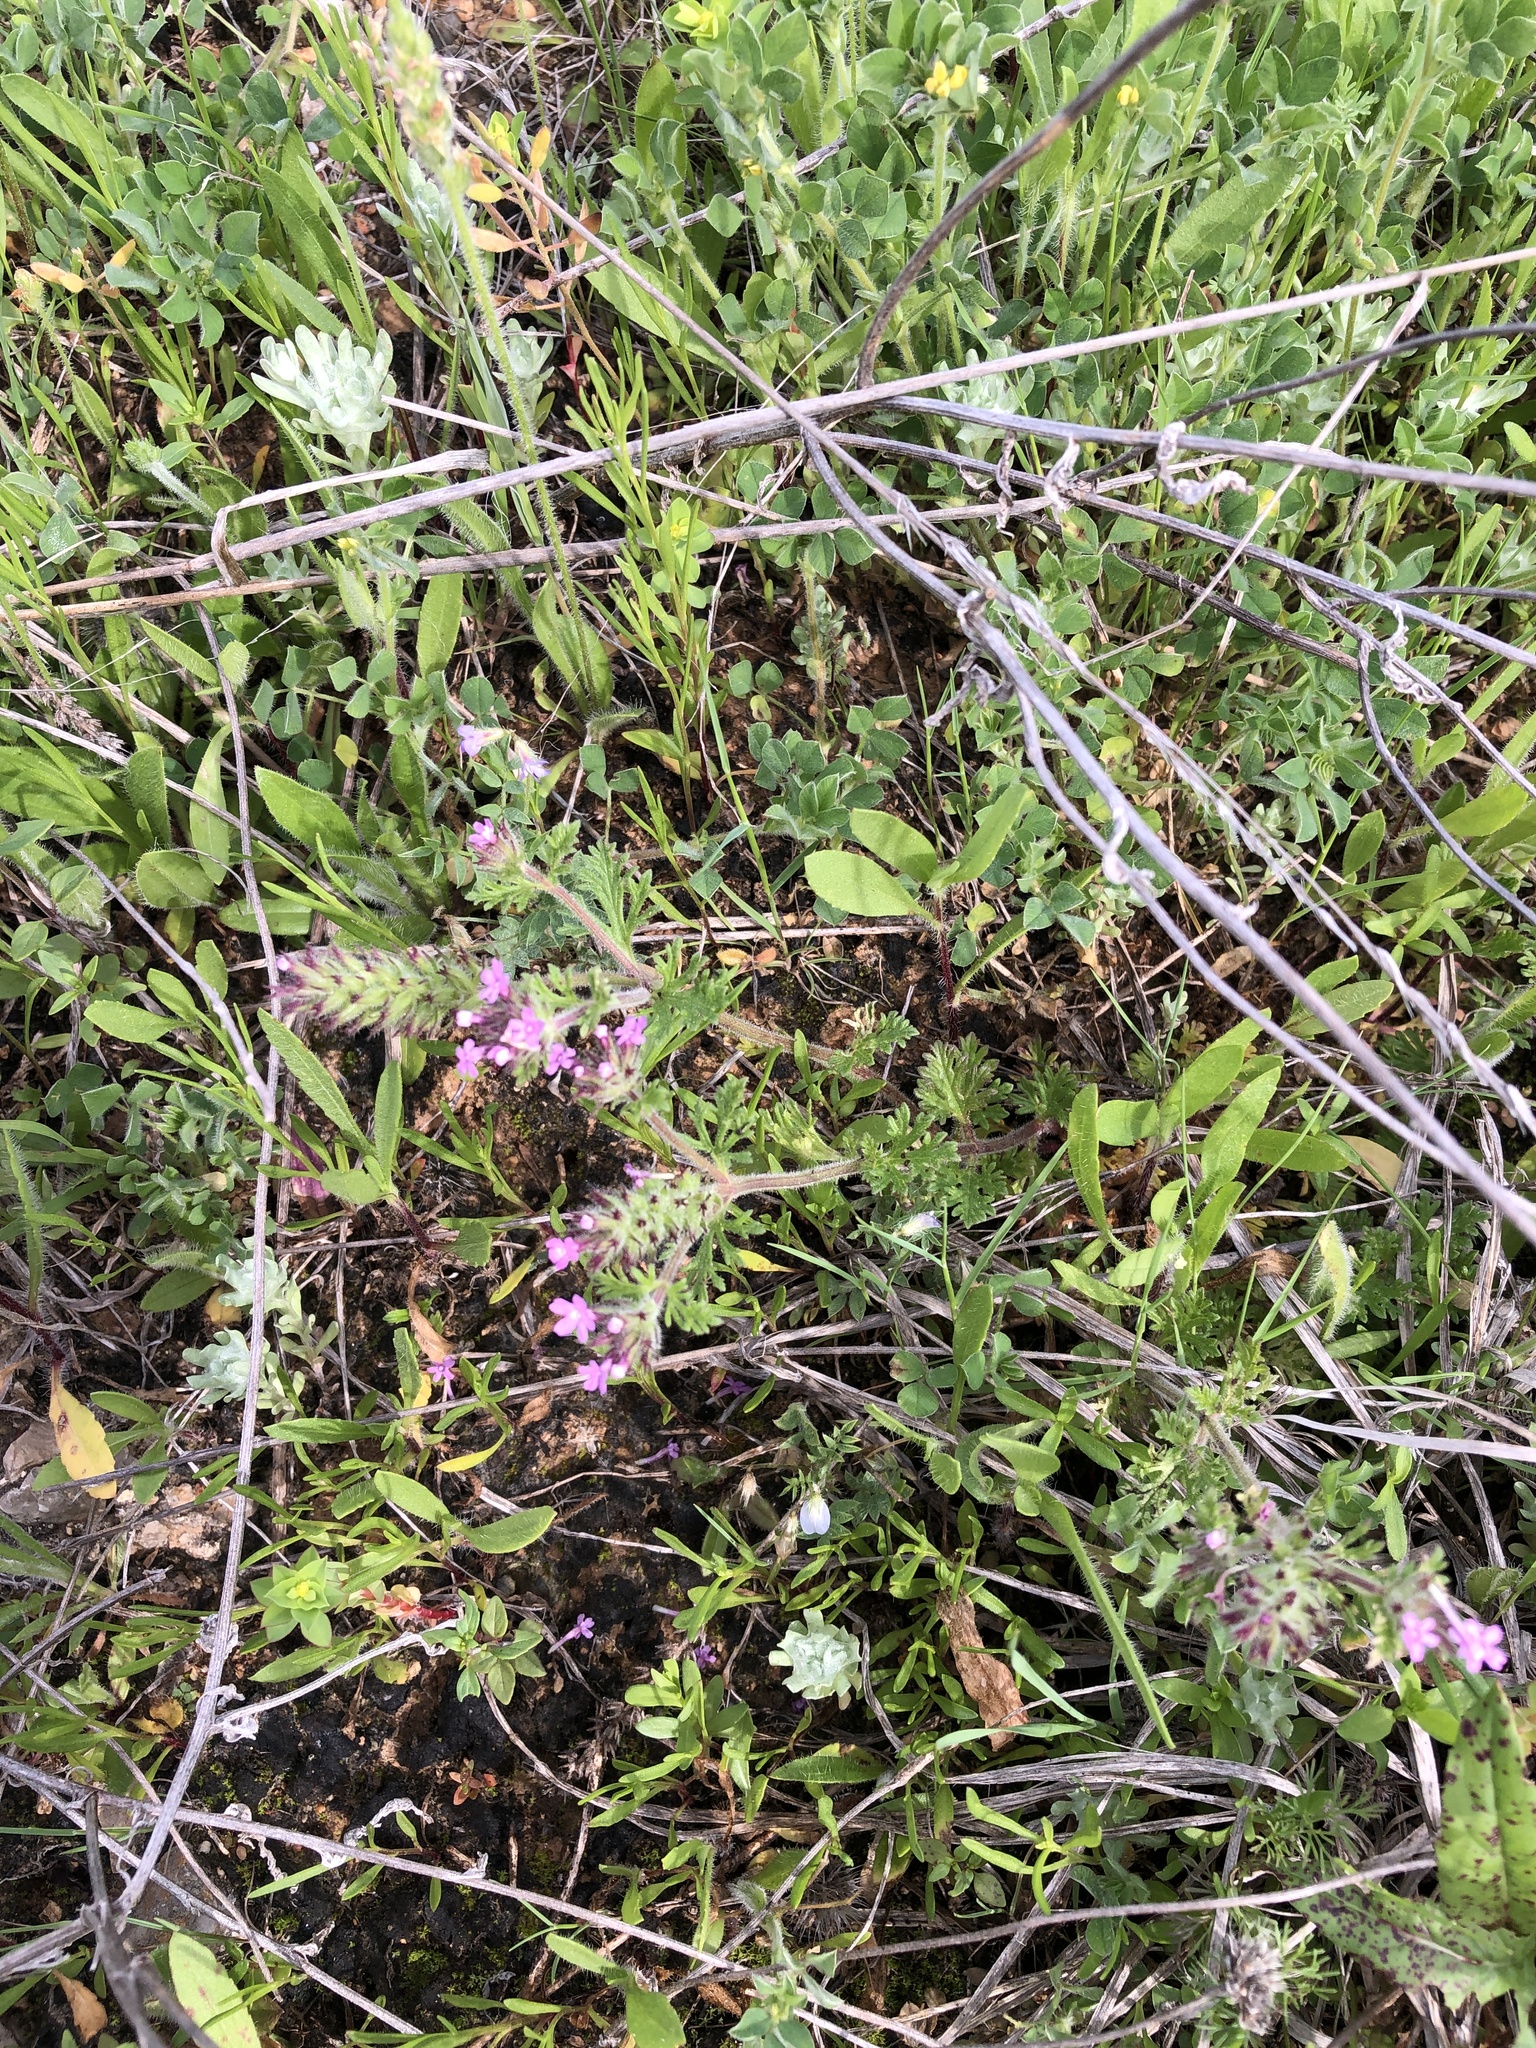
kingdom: Plantae
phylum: Tracheophyta
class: Magnoliopsida
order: Lamiales
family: Verbenaceae
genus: Verbena
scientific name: Verbena pumila
